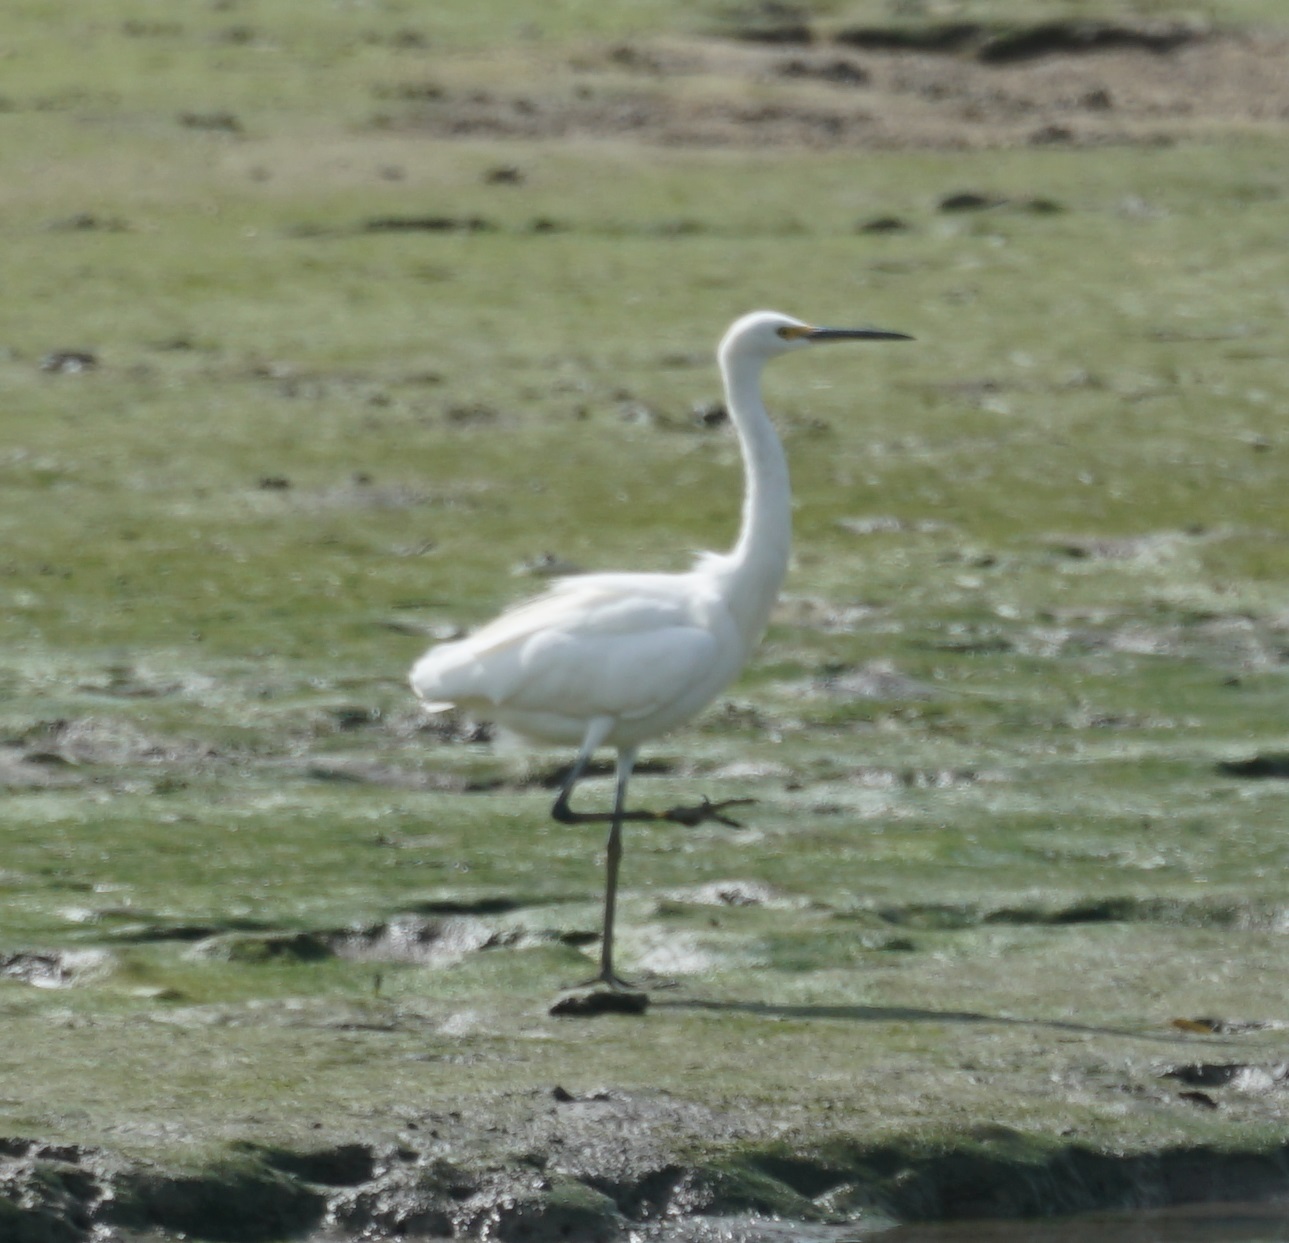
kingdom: Animalia
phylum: Chordata
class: Aves
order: Pelecaniformes
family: Ardeidae
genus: Egretta
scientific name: Egretta garzetta
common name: Little egret
